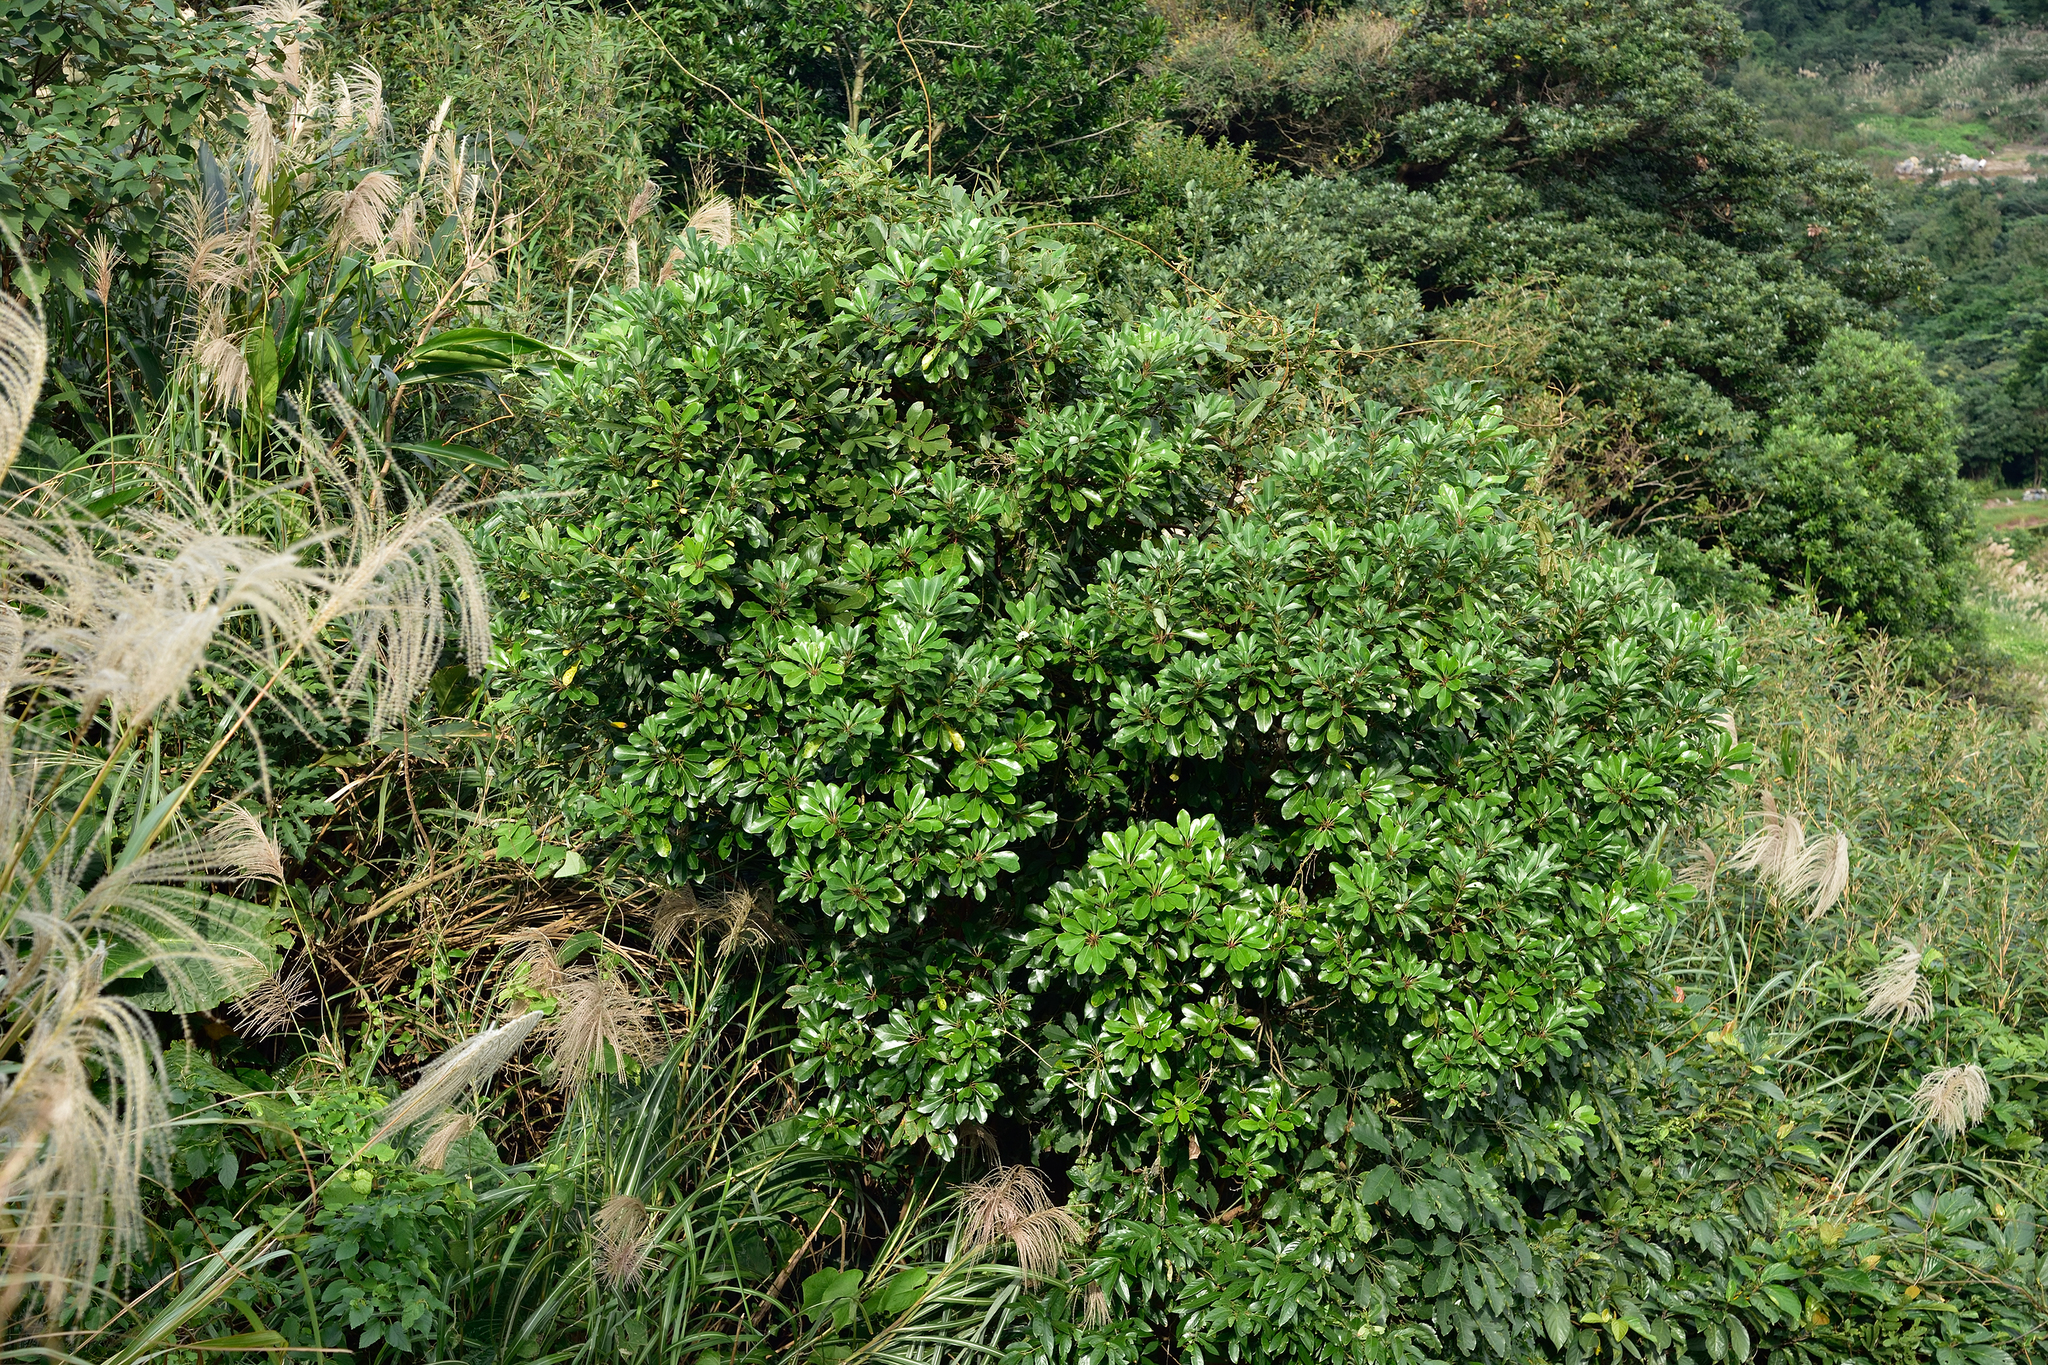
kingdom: Plantae
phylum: Tracheophyta
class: Magnoliopsida
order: Saxifragales
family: Daphniphyllaceae
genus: Daphniphyllum
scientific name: Daphniphyllum pentandrum
